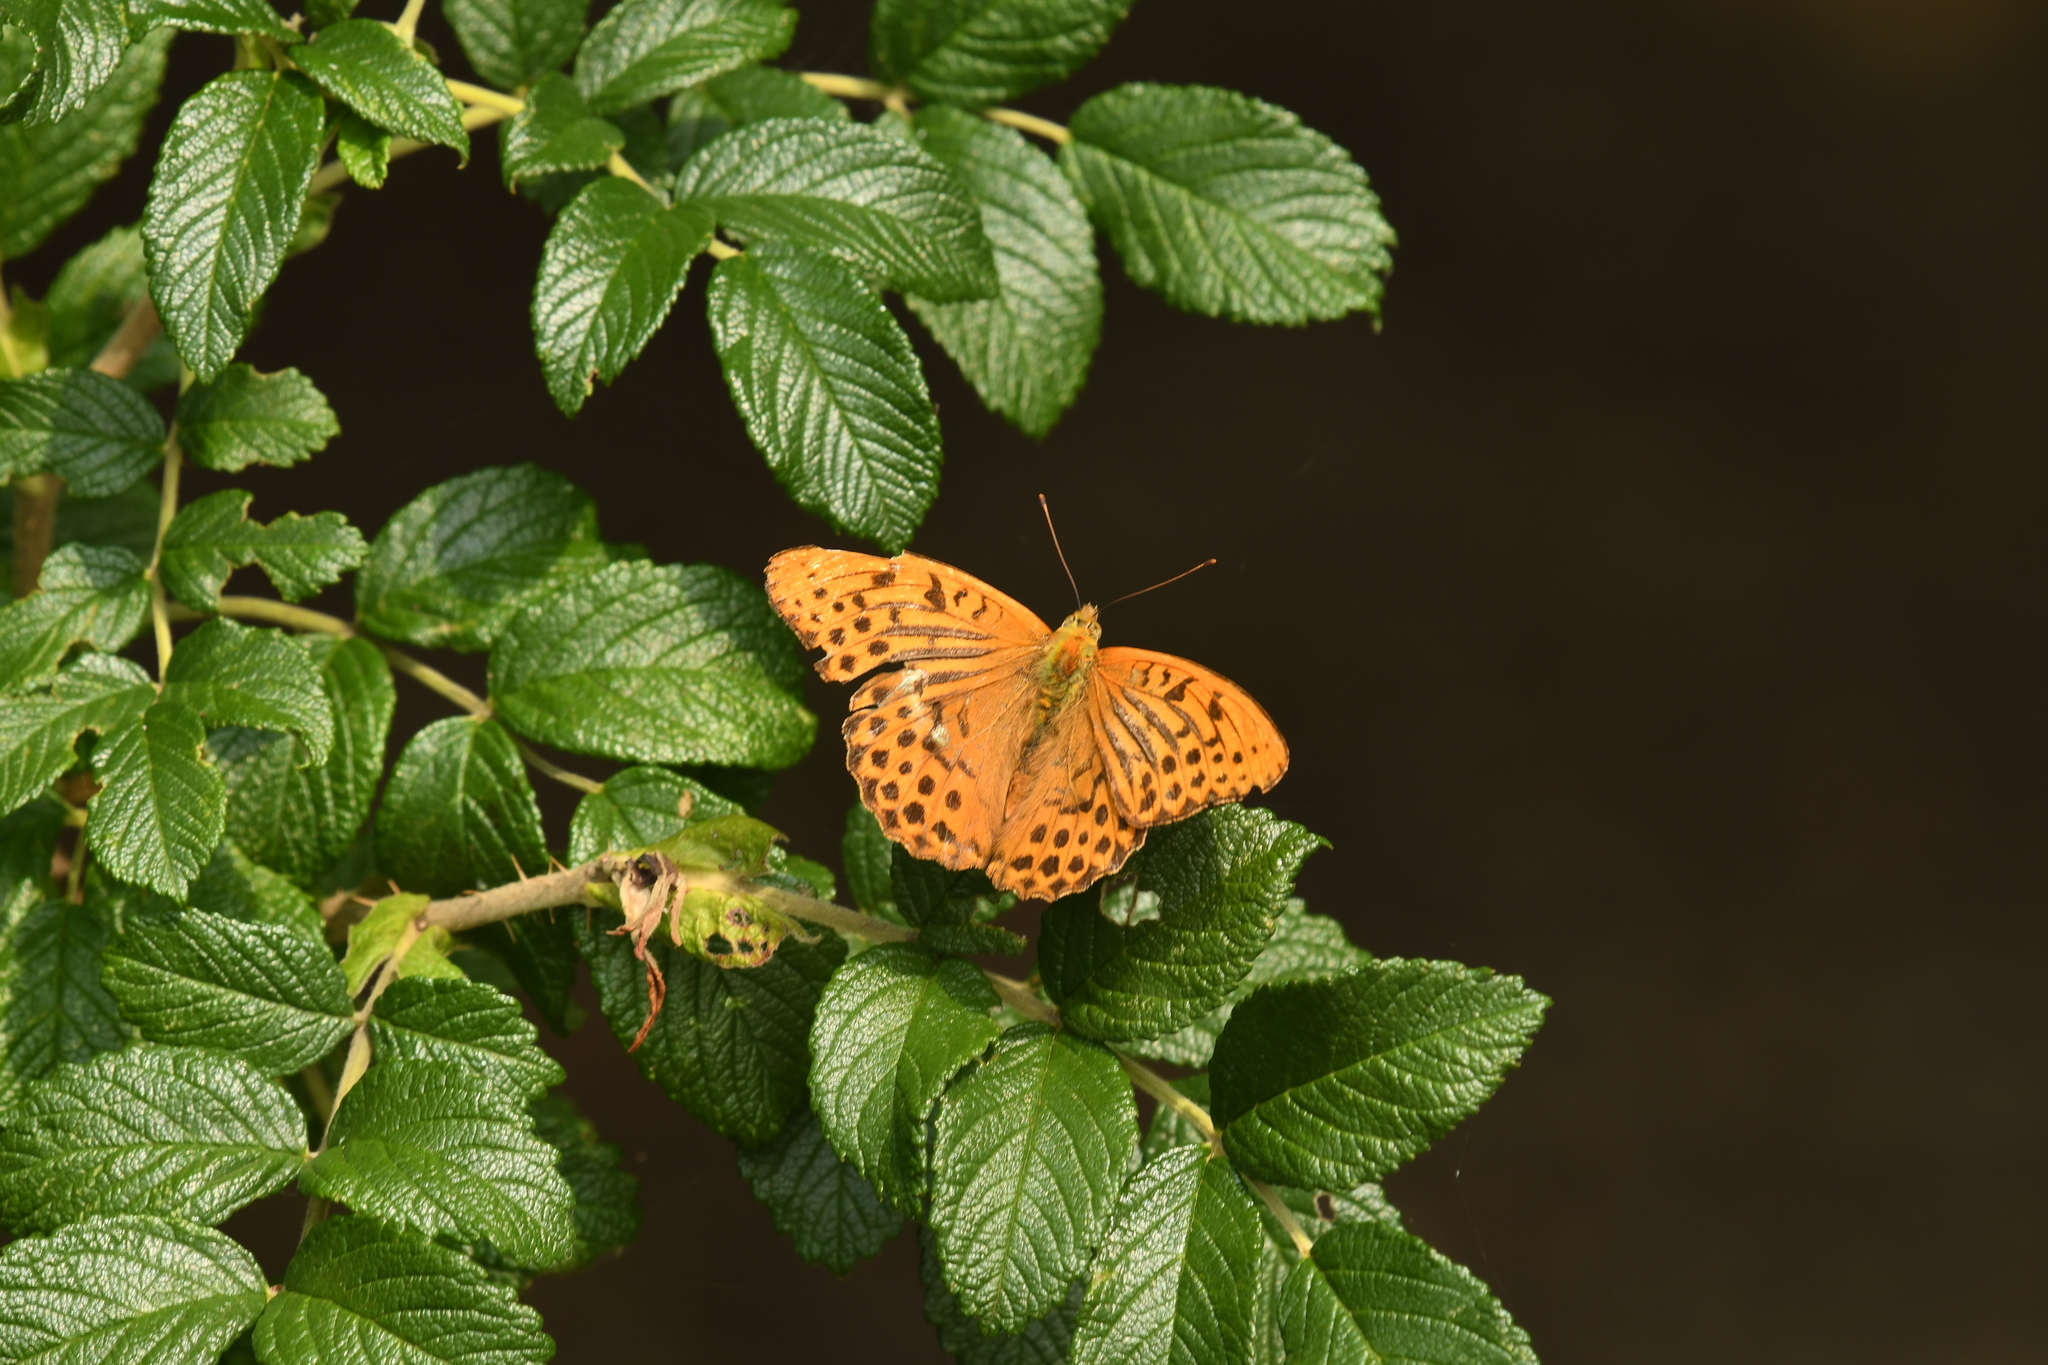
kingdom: Animalia
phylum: Arthropoda
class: Insecta
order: Lepidoptera
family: Nymphalidae
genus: Argynnis
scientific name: Argynnis paphia
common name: Silver-washed fritillary
